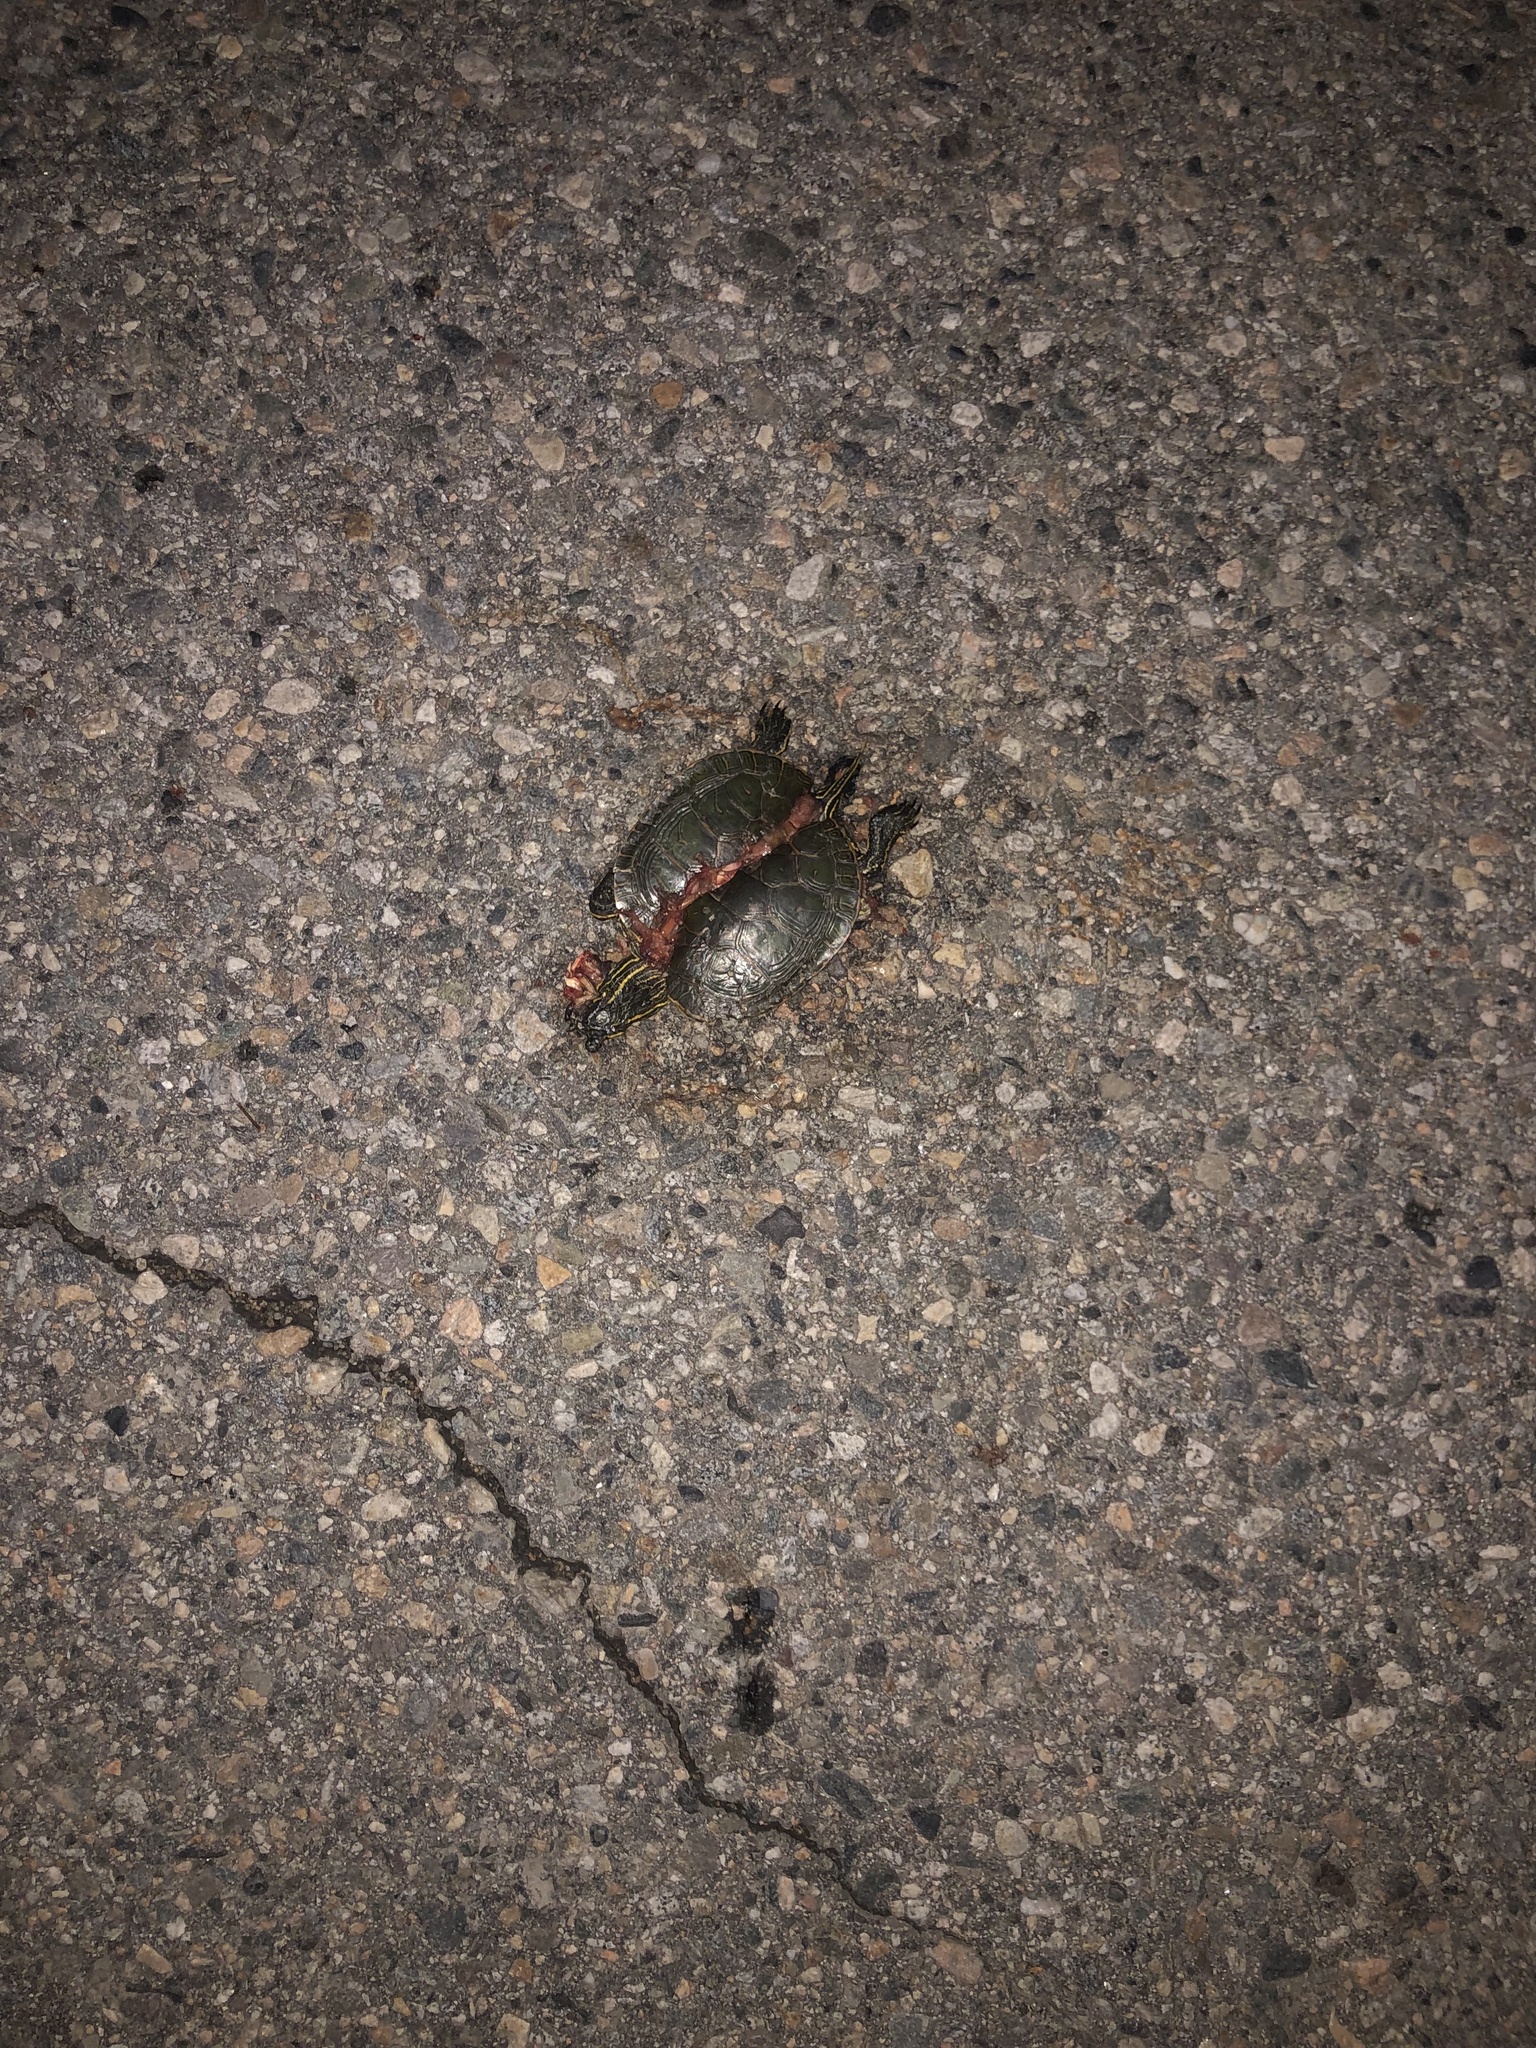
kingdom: Animalia
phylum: Chordata
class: Testudines
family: Emydidae
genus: Chrysemys
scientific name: Chrysemys picta
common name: Painted turtle
